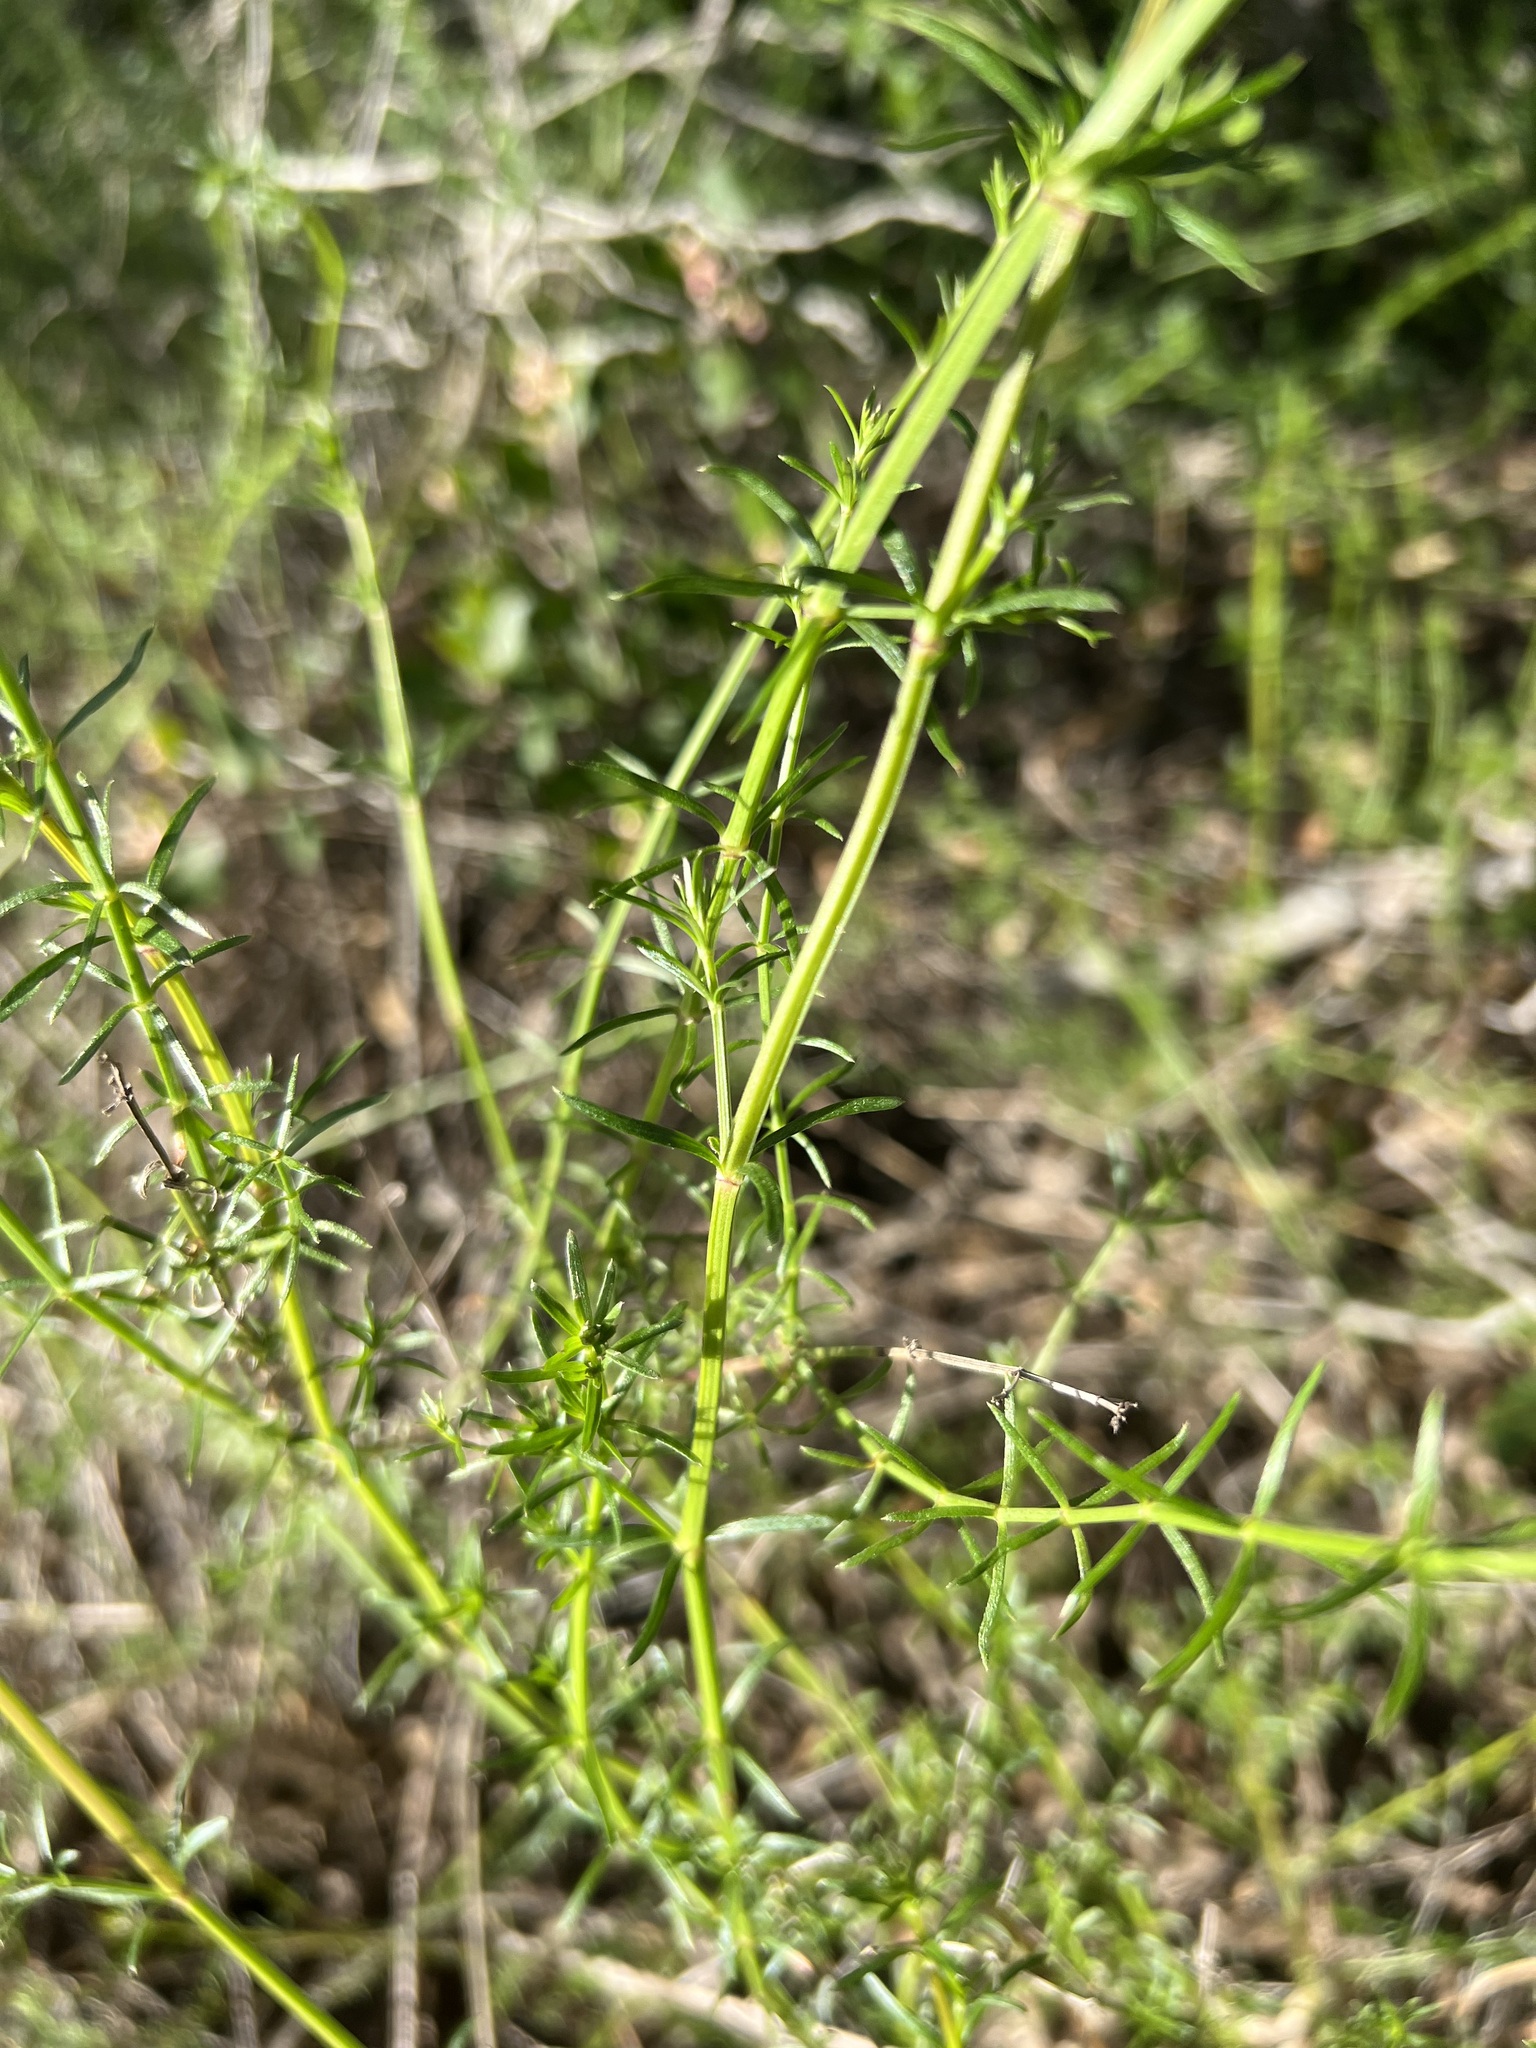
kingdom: Plantae
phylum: Tracheophyta
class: Magnoliopsida
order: Gentianales
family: Rubiaceae
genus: Galium
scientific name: Galium angustifolium
